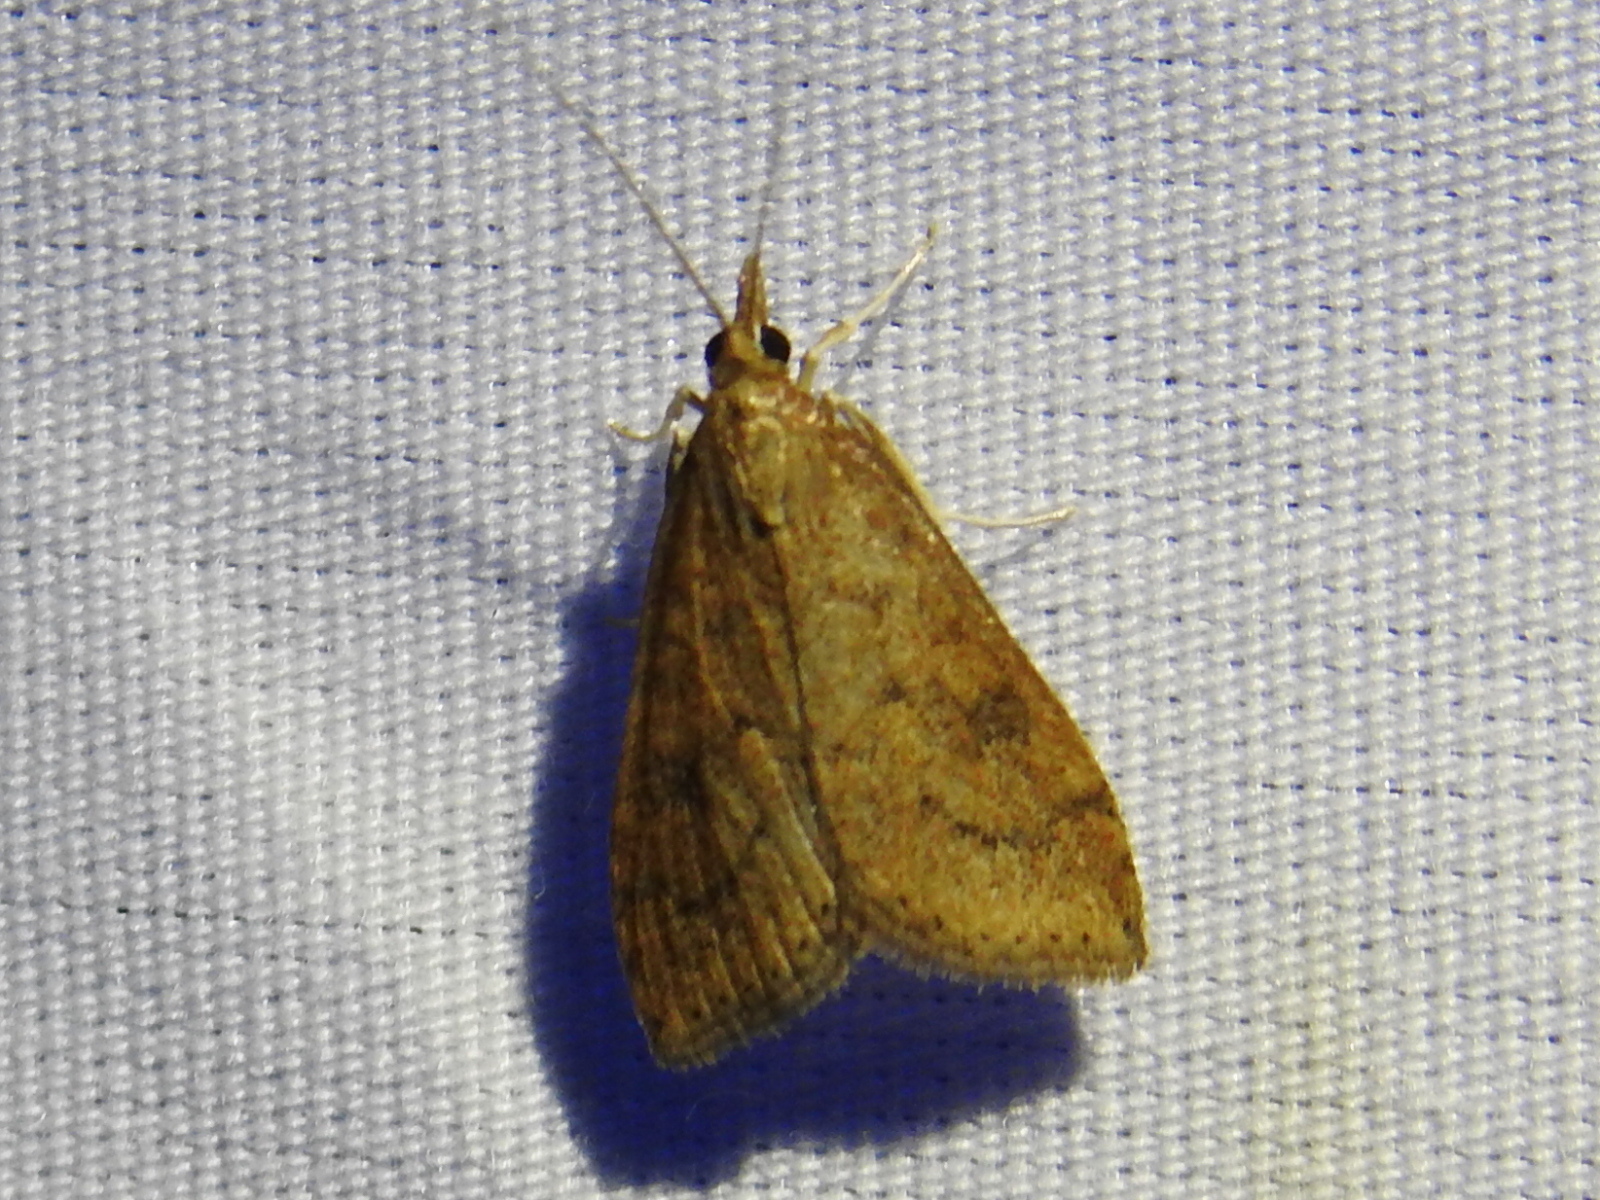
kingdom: Animalia
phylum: Arthropoda
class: Insecta
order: Lepidoptera
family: Crambidae
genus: Udea
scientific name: Udea rubigalis
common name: Celery leaftier moth
